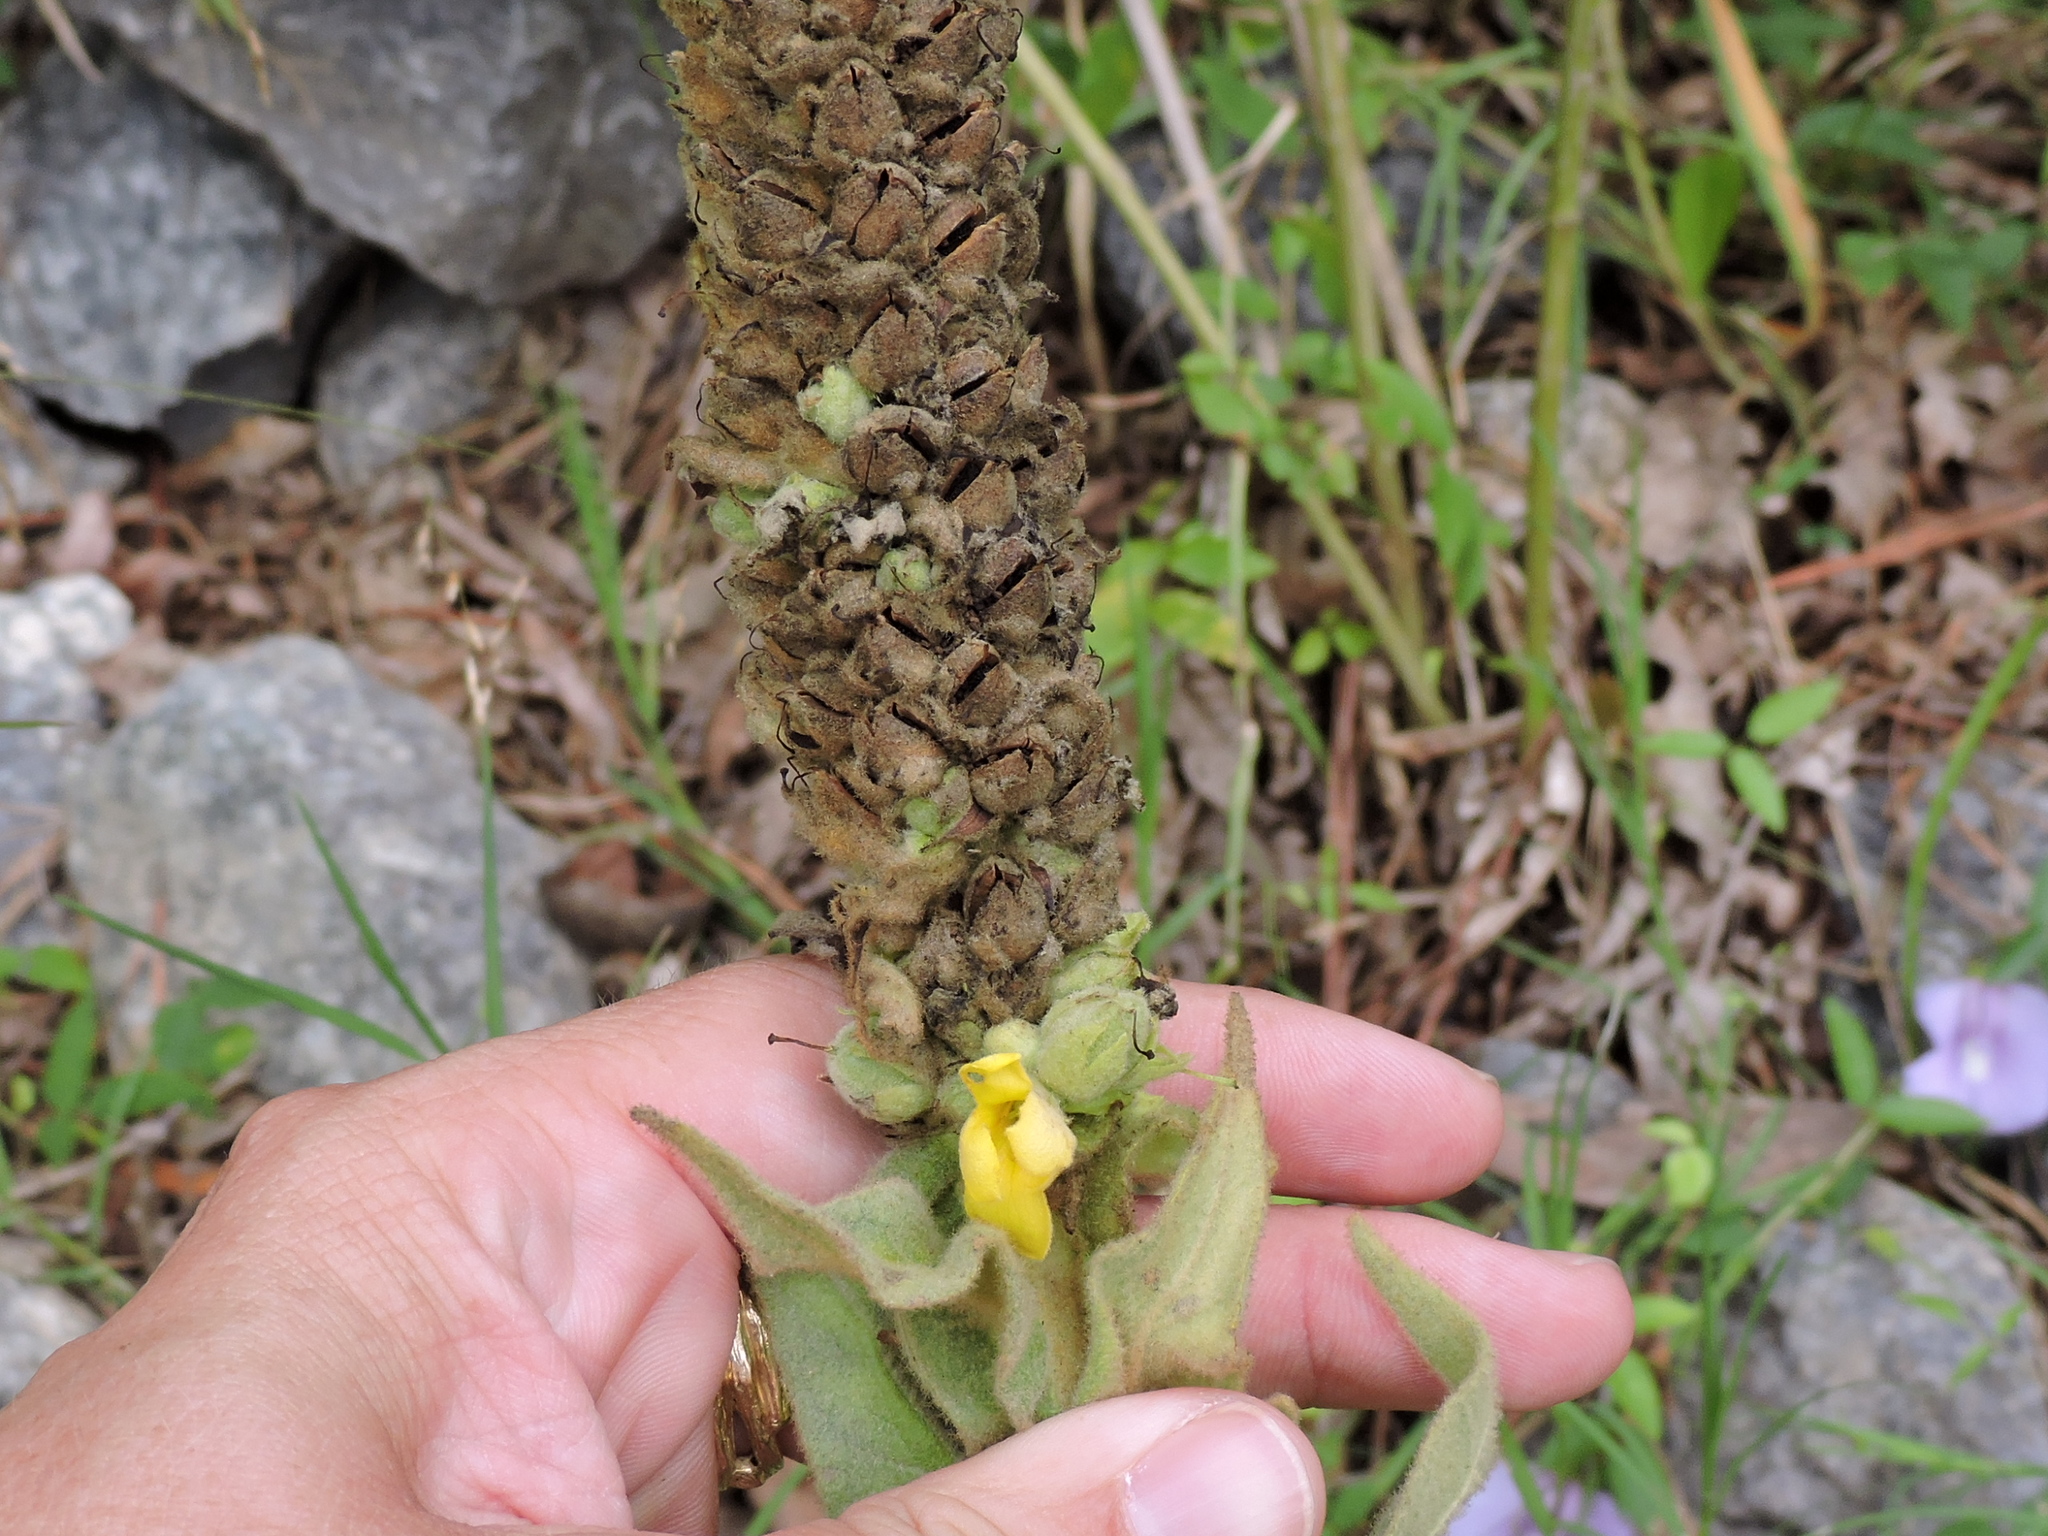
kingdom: Plantae
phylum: Tracheophyta
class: Magnoliopsida
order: Lamiales
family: Scrophulariaceae
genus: Verbascum
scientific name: Verbascum thapsus
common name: Common mullein
